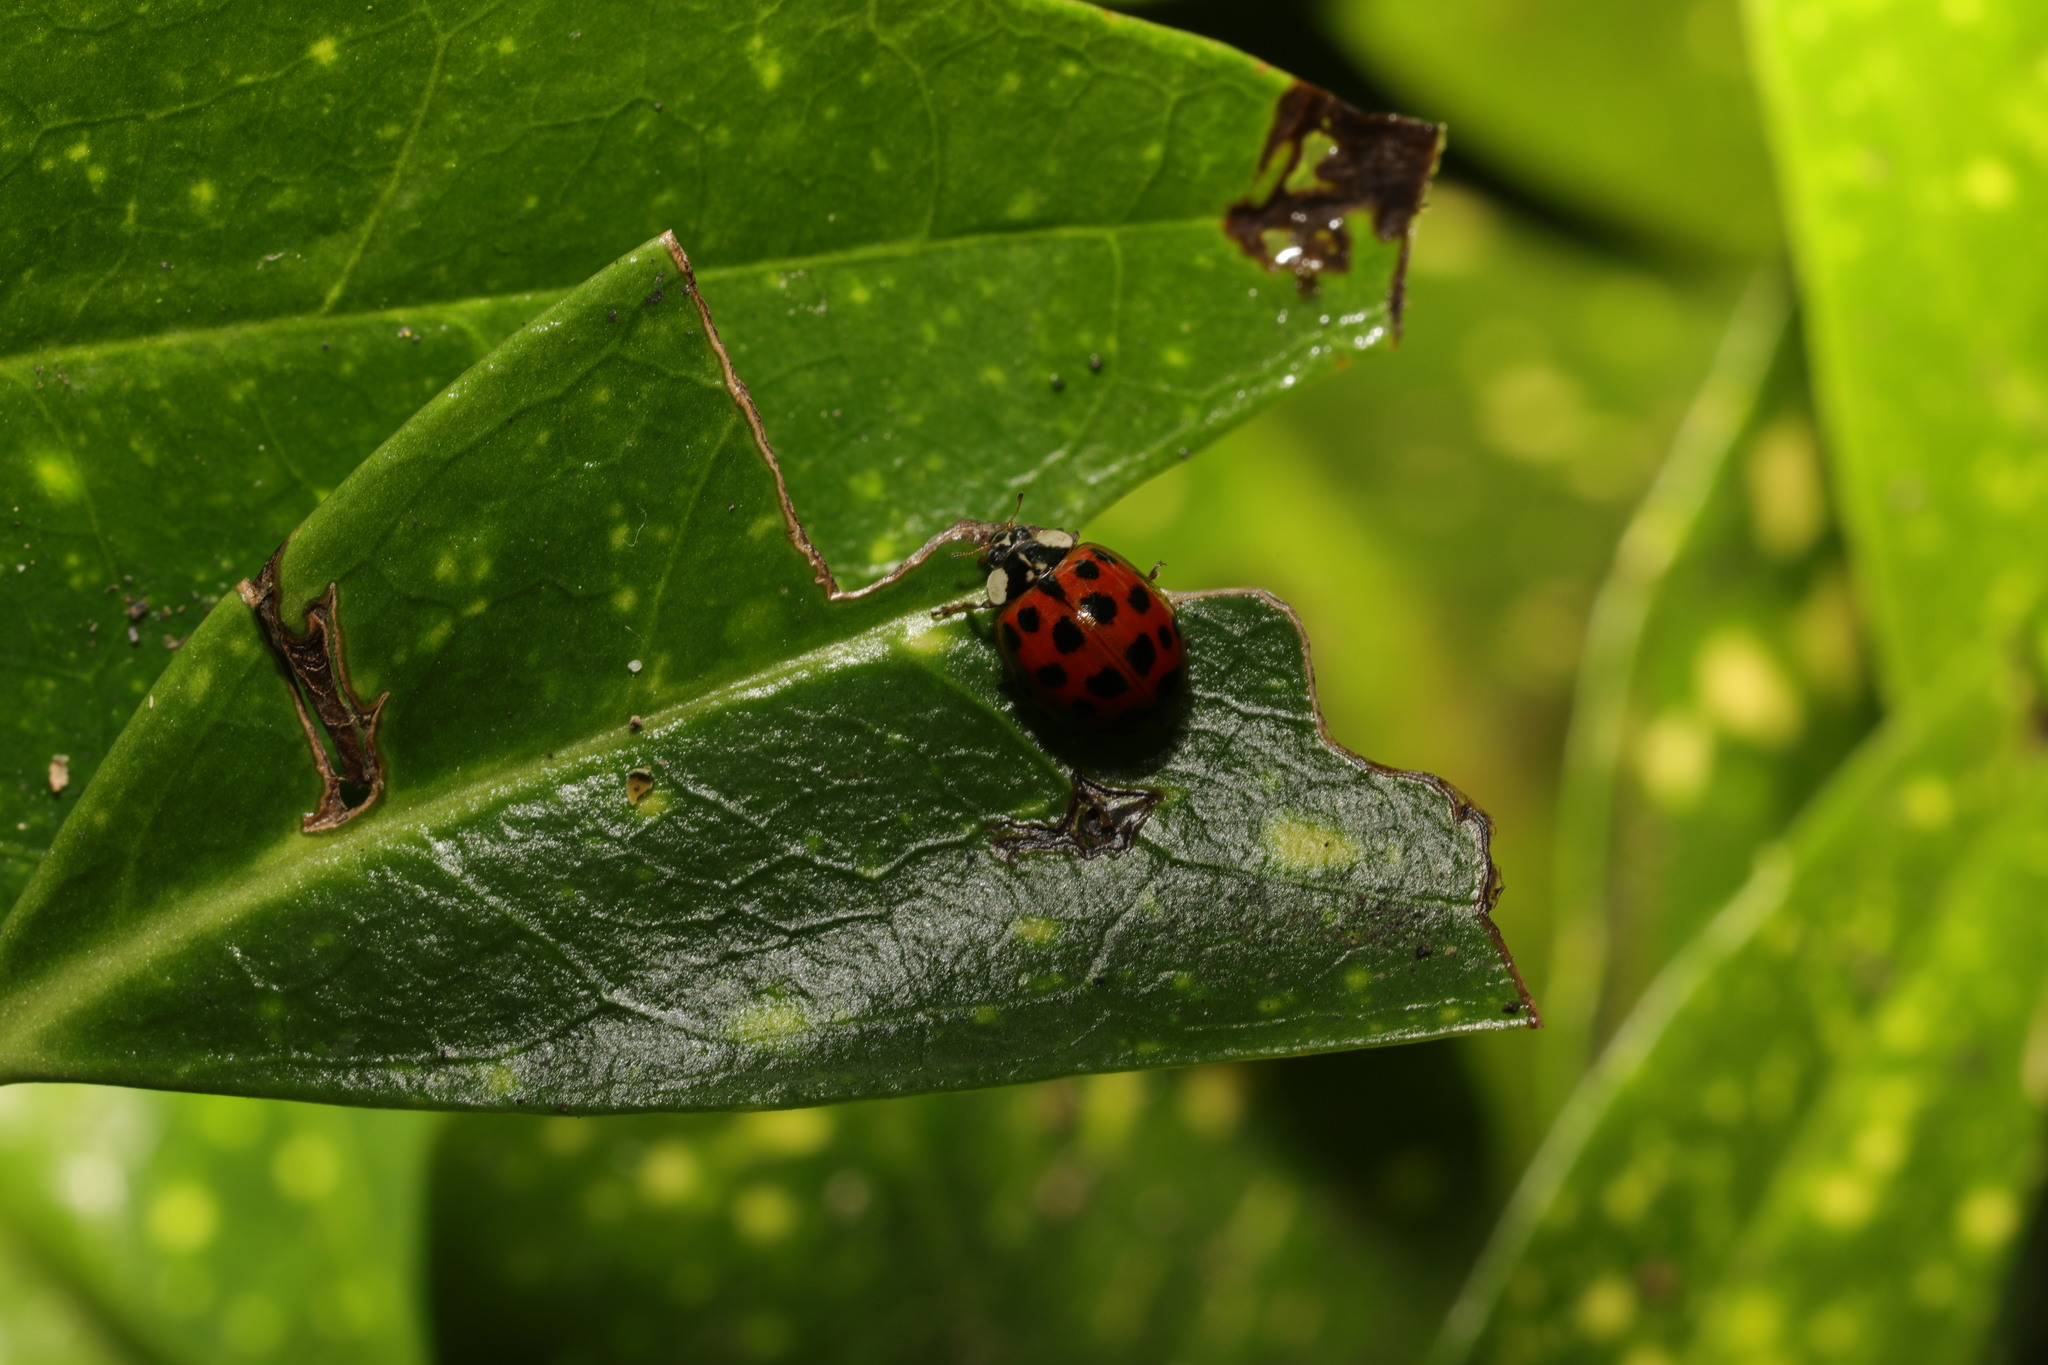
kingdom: Animalia
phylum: Arthropoda
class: Insecta
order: Coleoptera
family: Coccinellidae
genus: Harmonia
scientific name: Harmonia axyridis
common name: Harlequin ladybird
